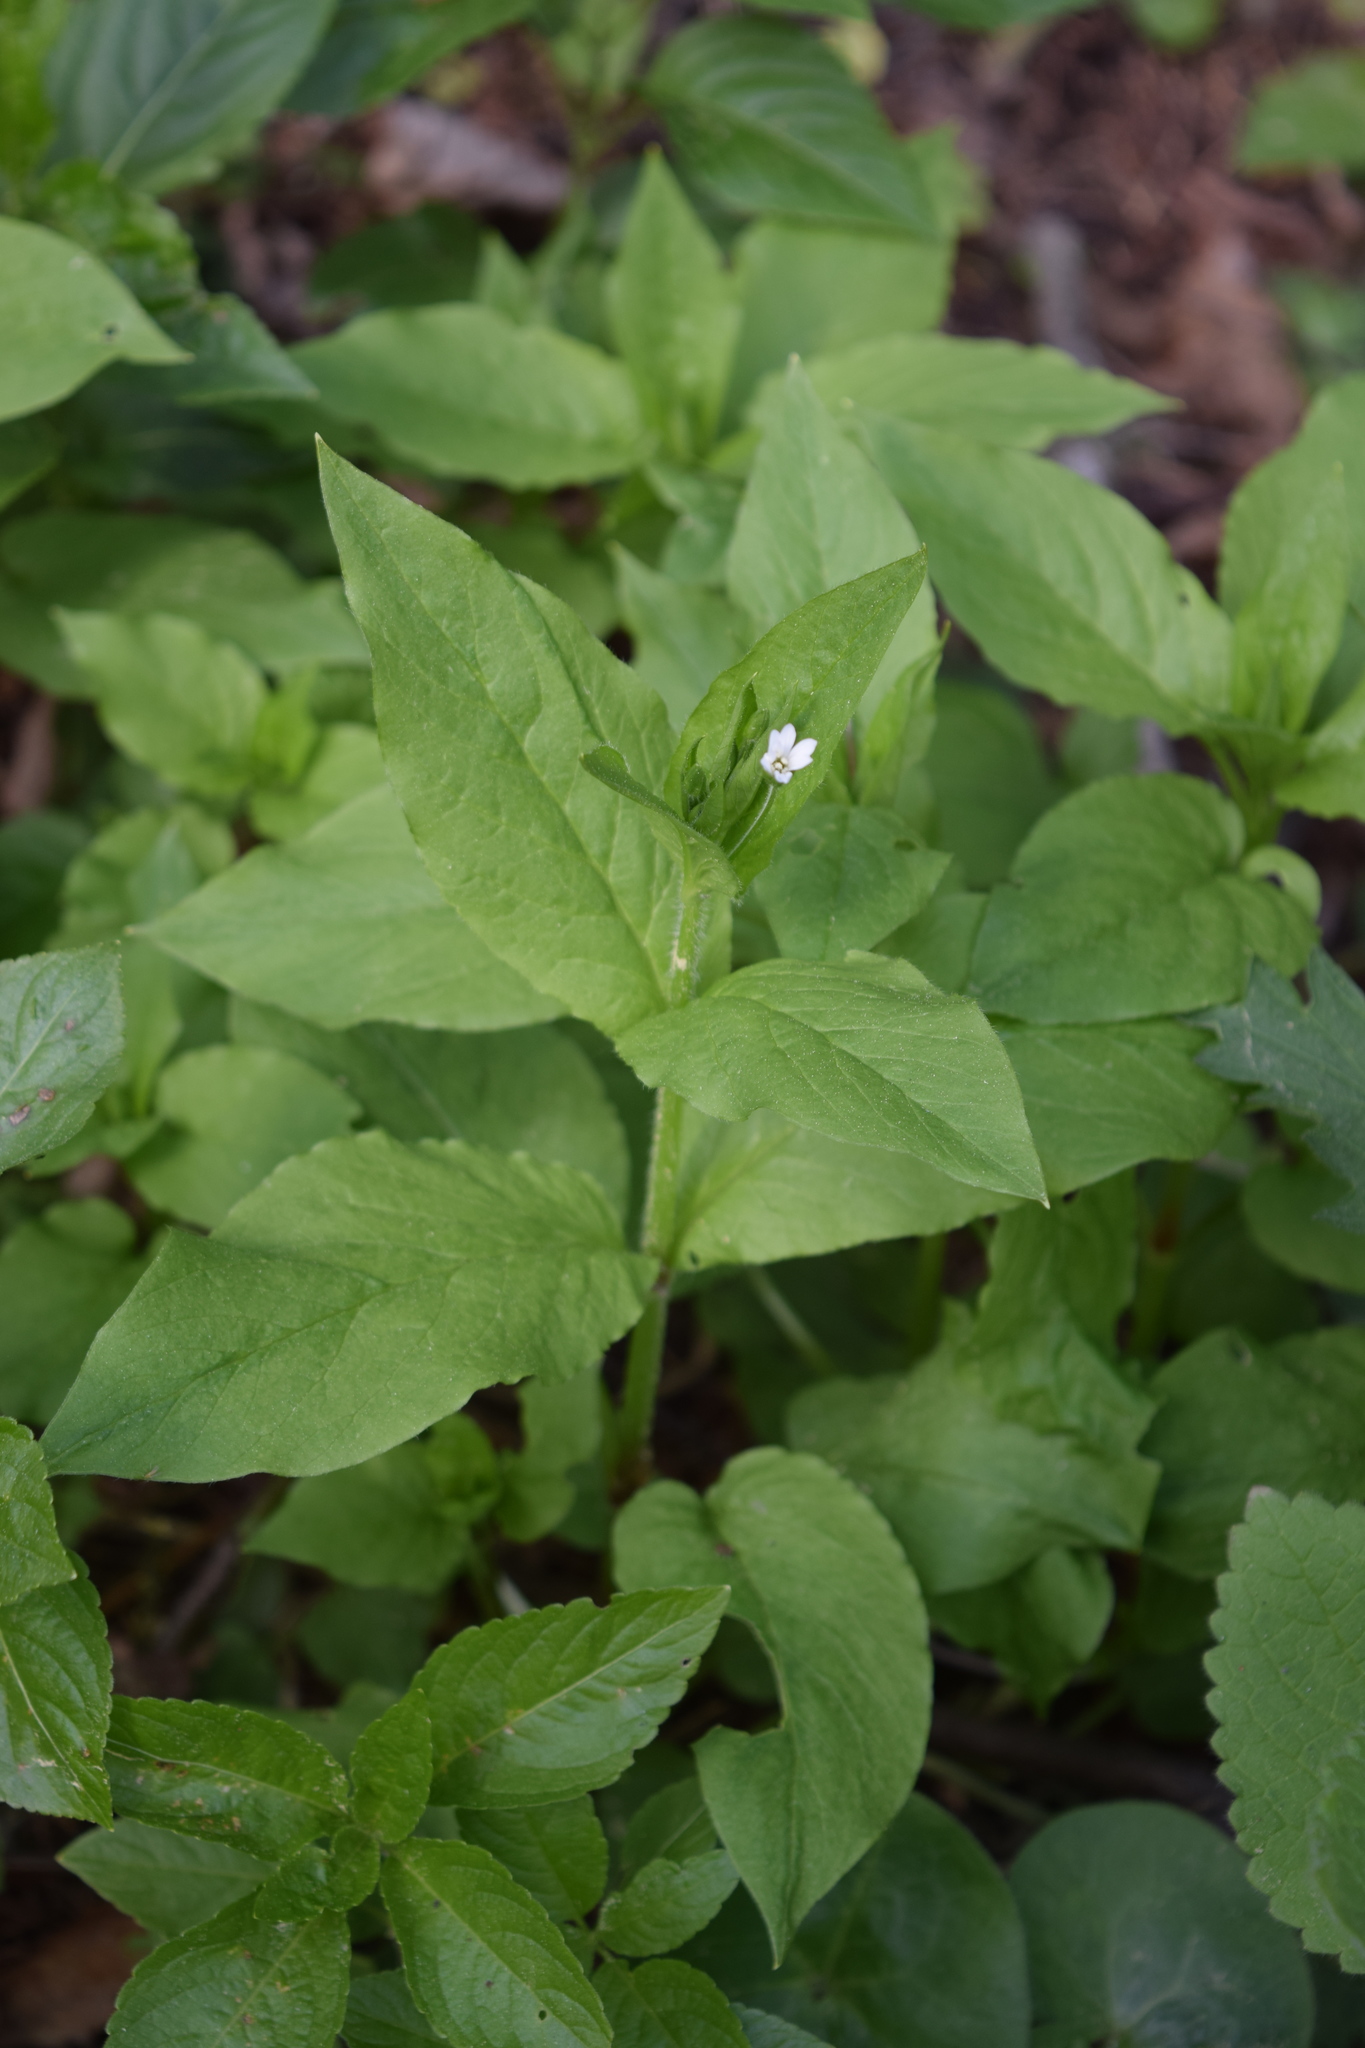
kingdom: Plantae
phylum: Tracheophyta
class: Magnoliopsida
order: Caryophyllales
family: Caryophyllaceae
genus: Stellaria
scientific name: Stellaria nemorum
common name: Wood stitchwort
